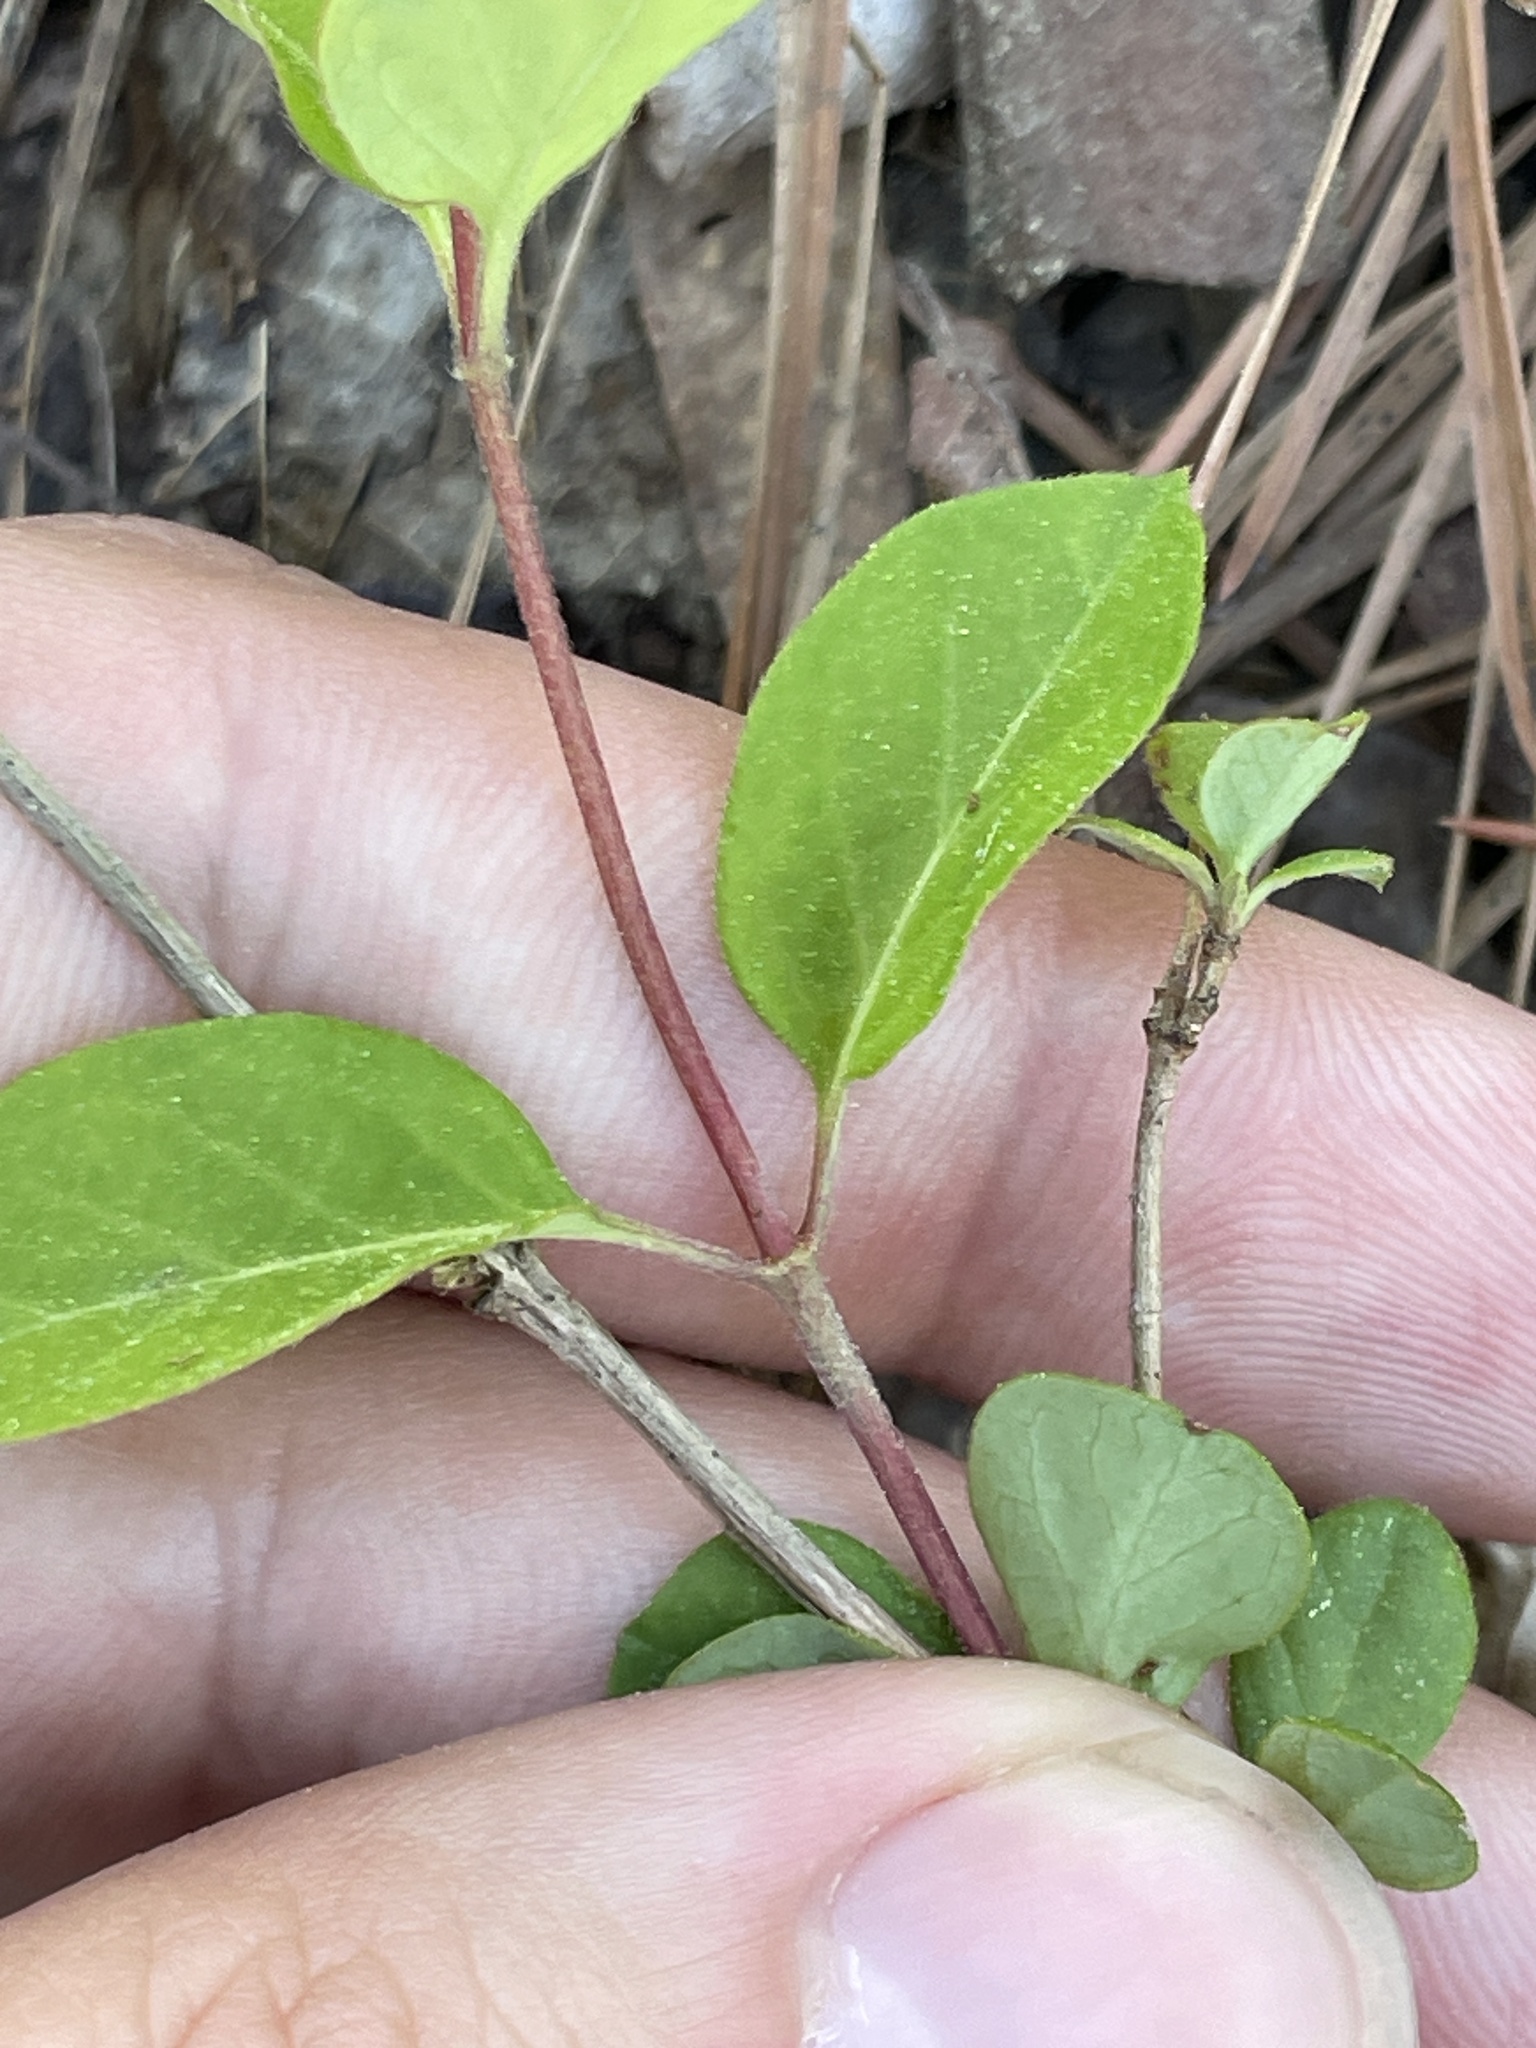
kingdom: Plantae
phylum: Tracheophyta
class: Magnoliopsida
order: Dipsacales
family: Caprifoliaceae
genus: Lonicera
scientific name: Lonicera japonica
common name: Japanese honeysuckle
